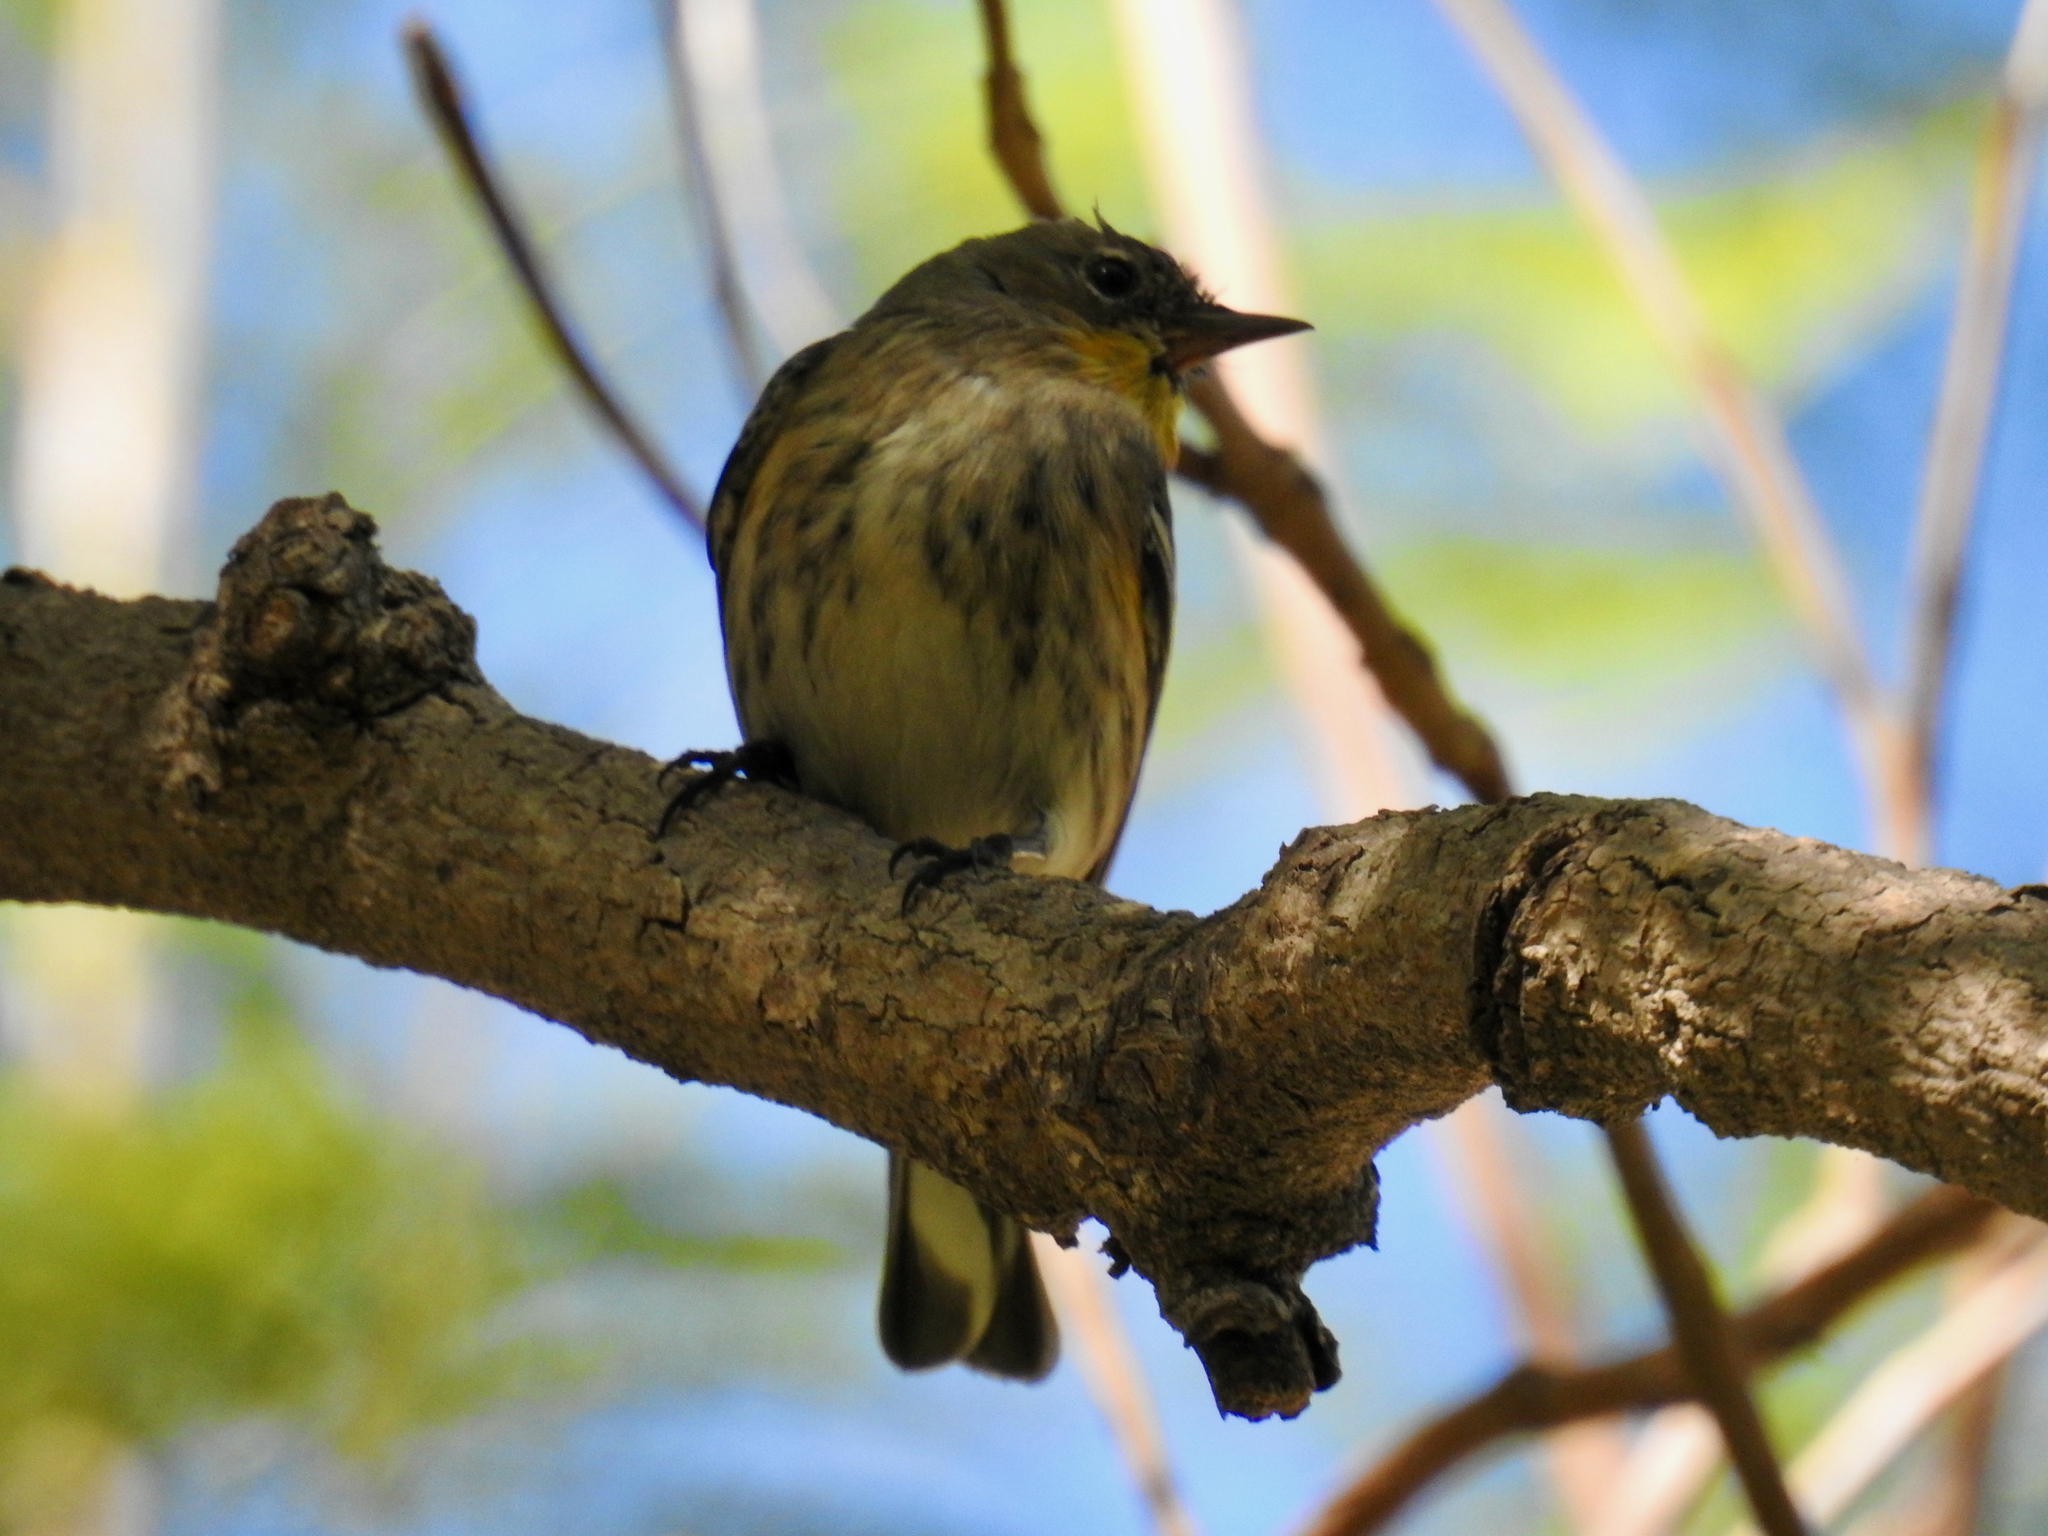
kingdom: Animalia
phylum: Chordata
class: Aves
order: Passeriformes
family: Parulidae
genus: Setophaga
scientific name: Setophaga coronata
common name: Myrtle warbler
